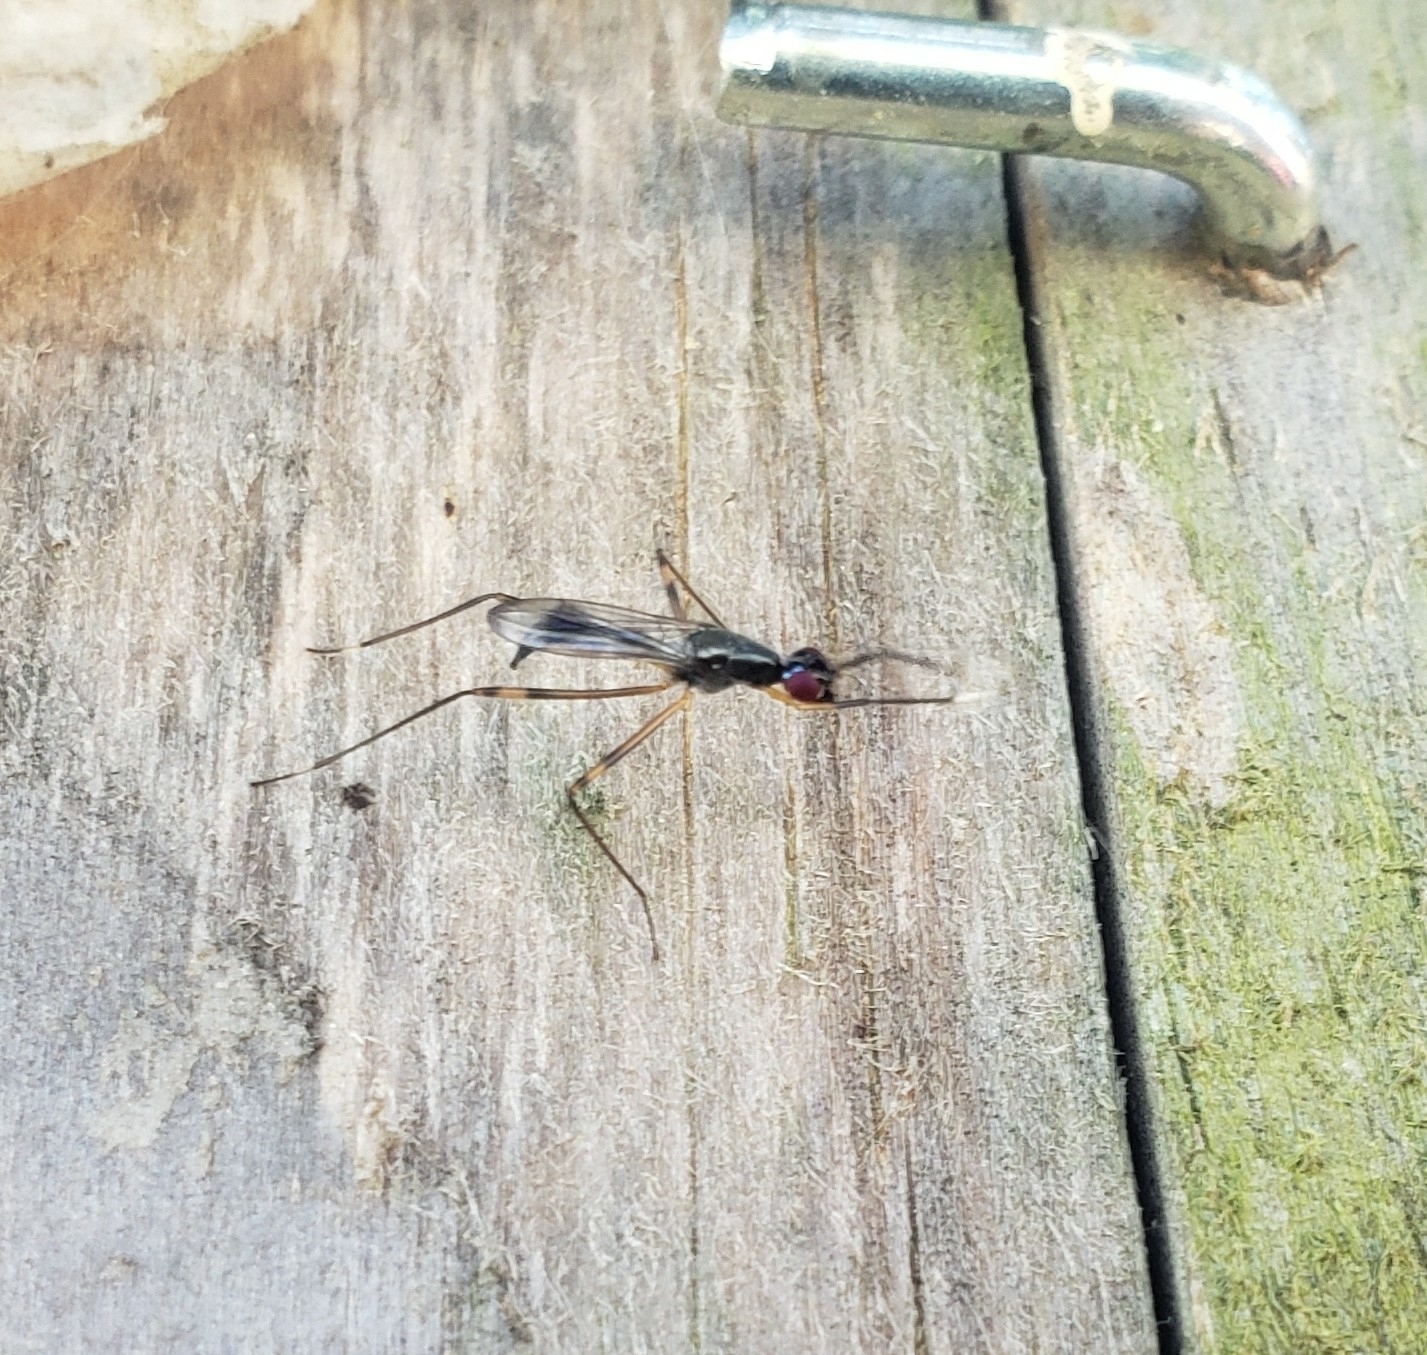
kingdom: Animalia
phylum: Arthropoda
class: Insecta
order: Diptera
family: Micropezidae
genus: Rainieria
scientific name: Rainieria antennaepes
